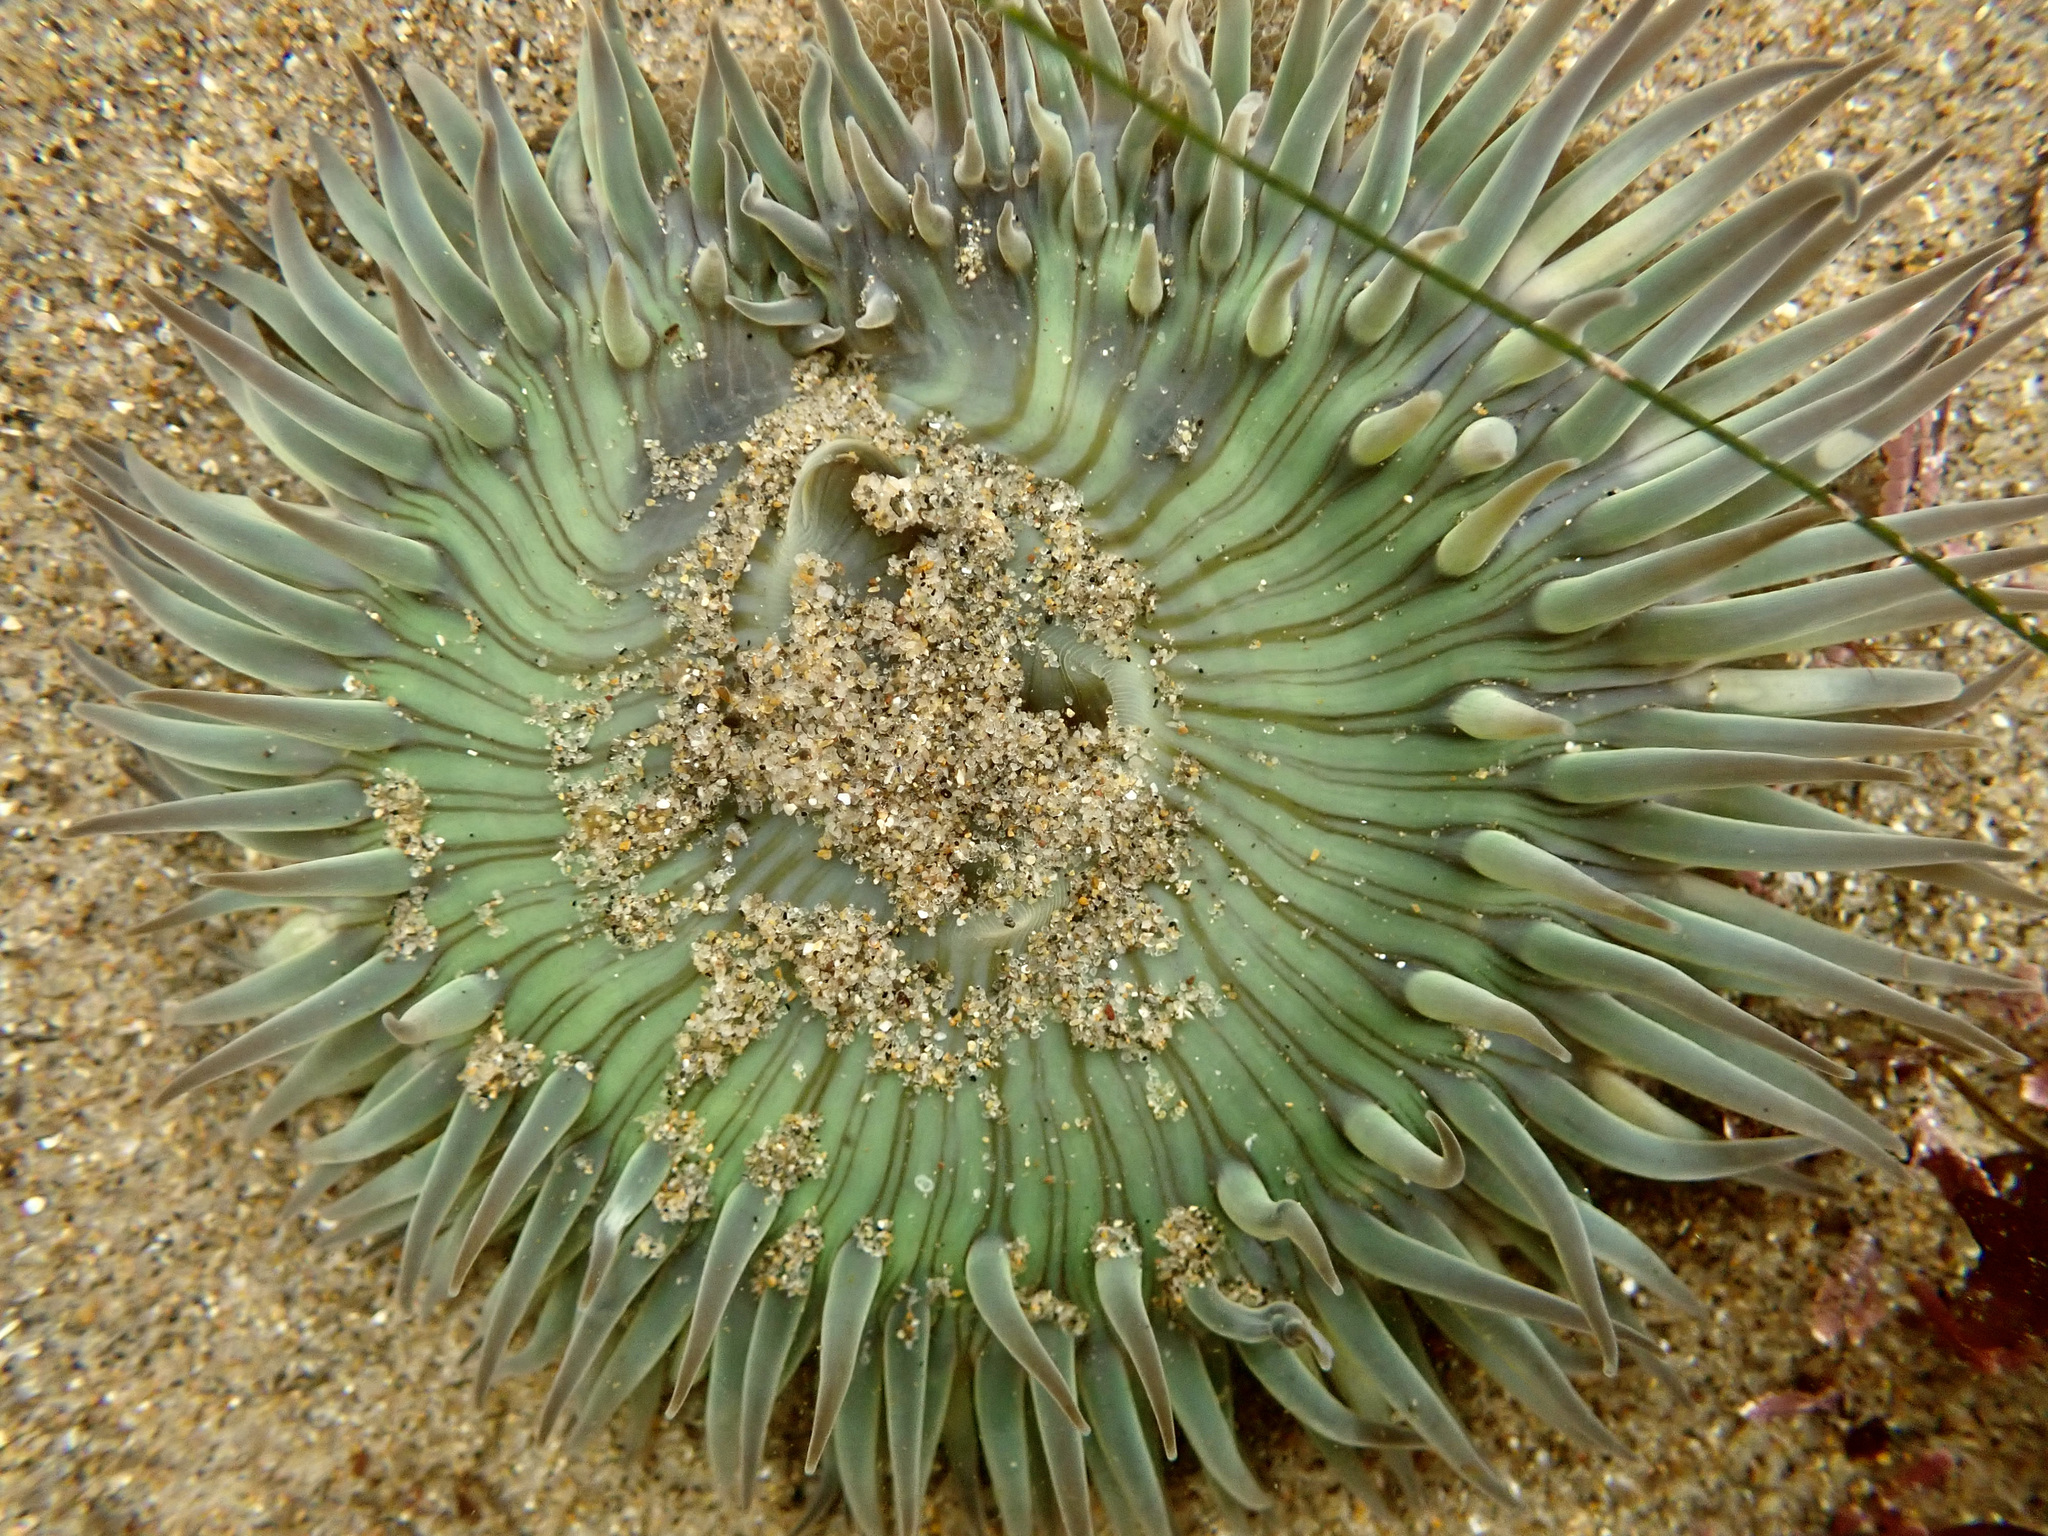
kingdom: Animalia
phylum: Cnidaria
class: Anthozoa
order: Actiniaria
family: Actiniidae
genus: Anthopleura
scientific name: Anthopleura sola
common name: Sun anemone
